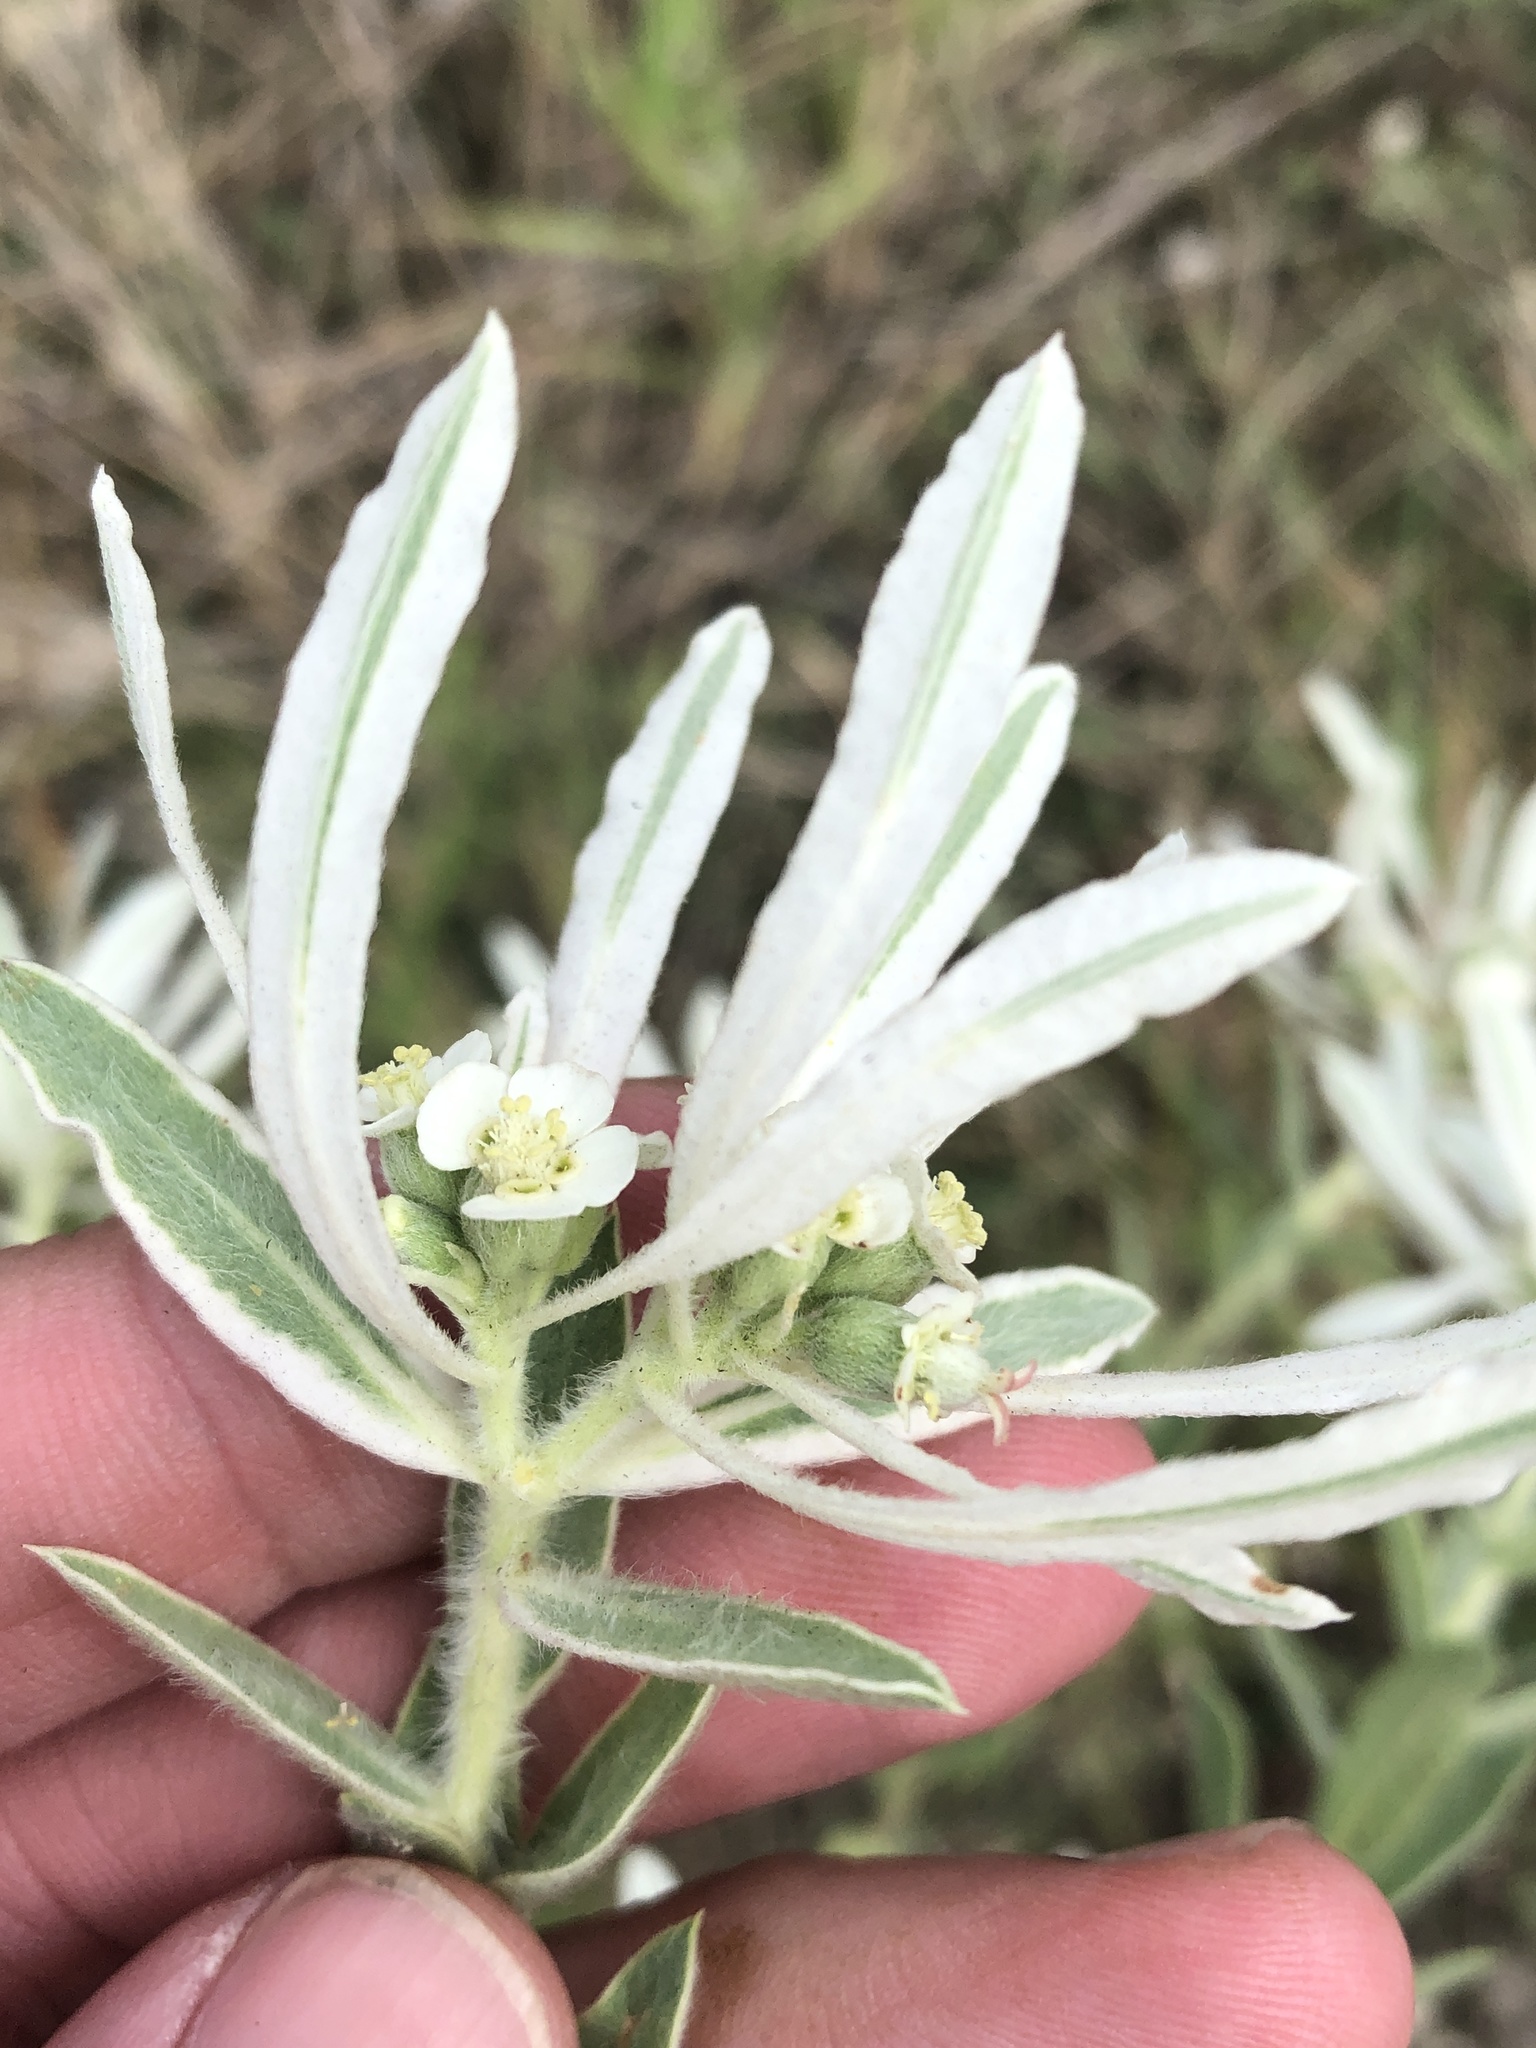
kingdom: Plantae
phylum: Tracheophyta
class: Magnoliopsida
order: Malpighiales
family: Euphorbiaceae
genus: Euphorbia
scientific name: Euphorbia bicolor
